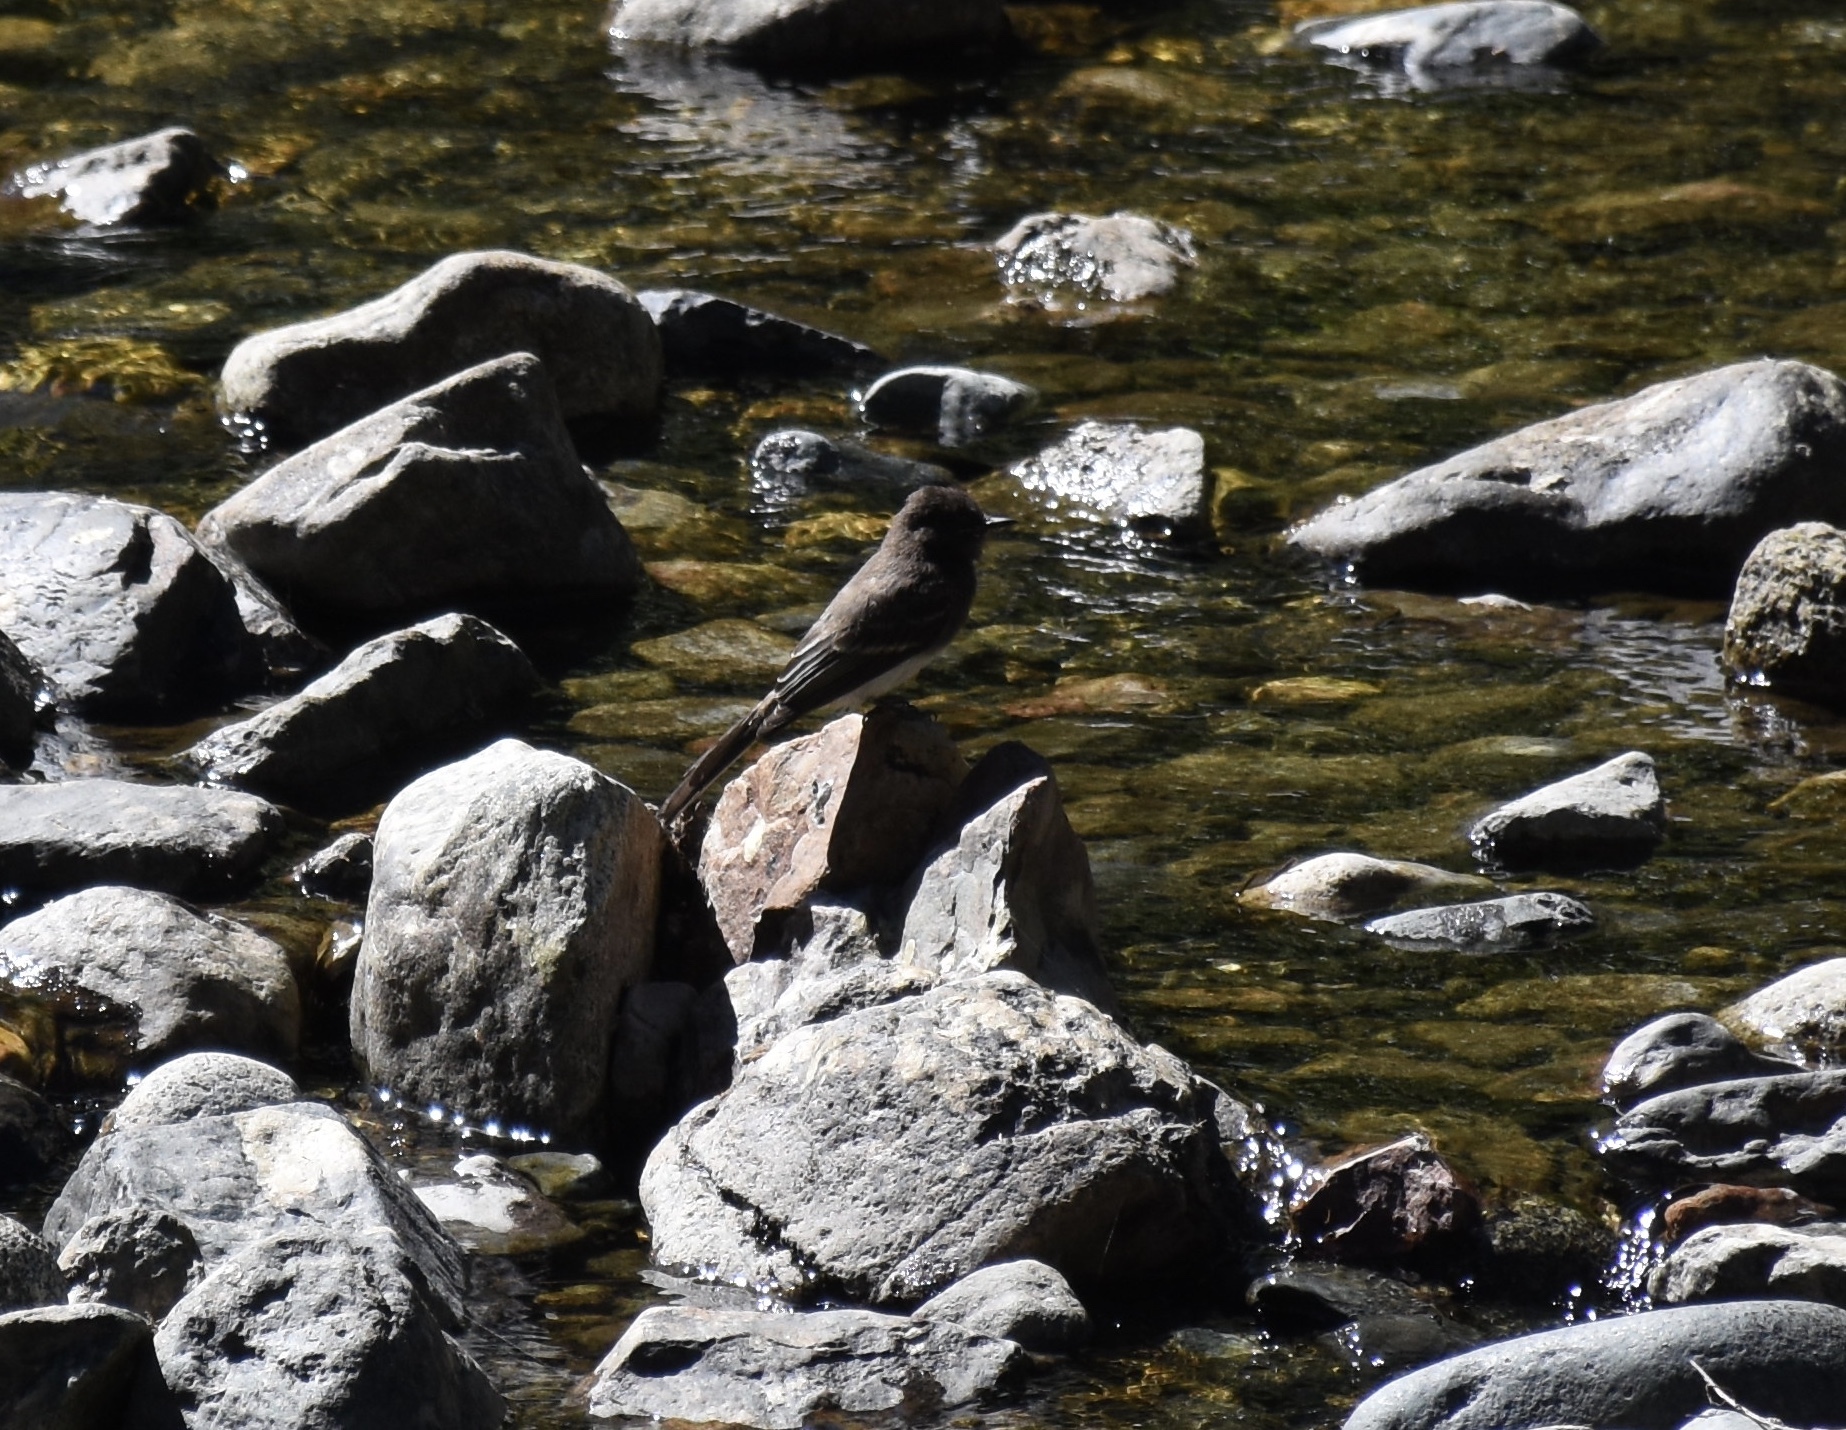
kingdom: Animalia
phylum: Chordata
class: Aves
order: Passeriformes
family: Tyrannidae
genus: Sayornis
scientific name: Sayornis nigricans
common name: Black phoebe
